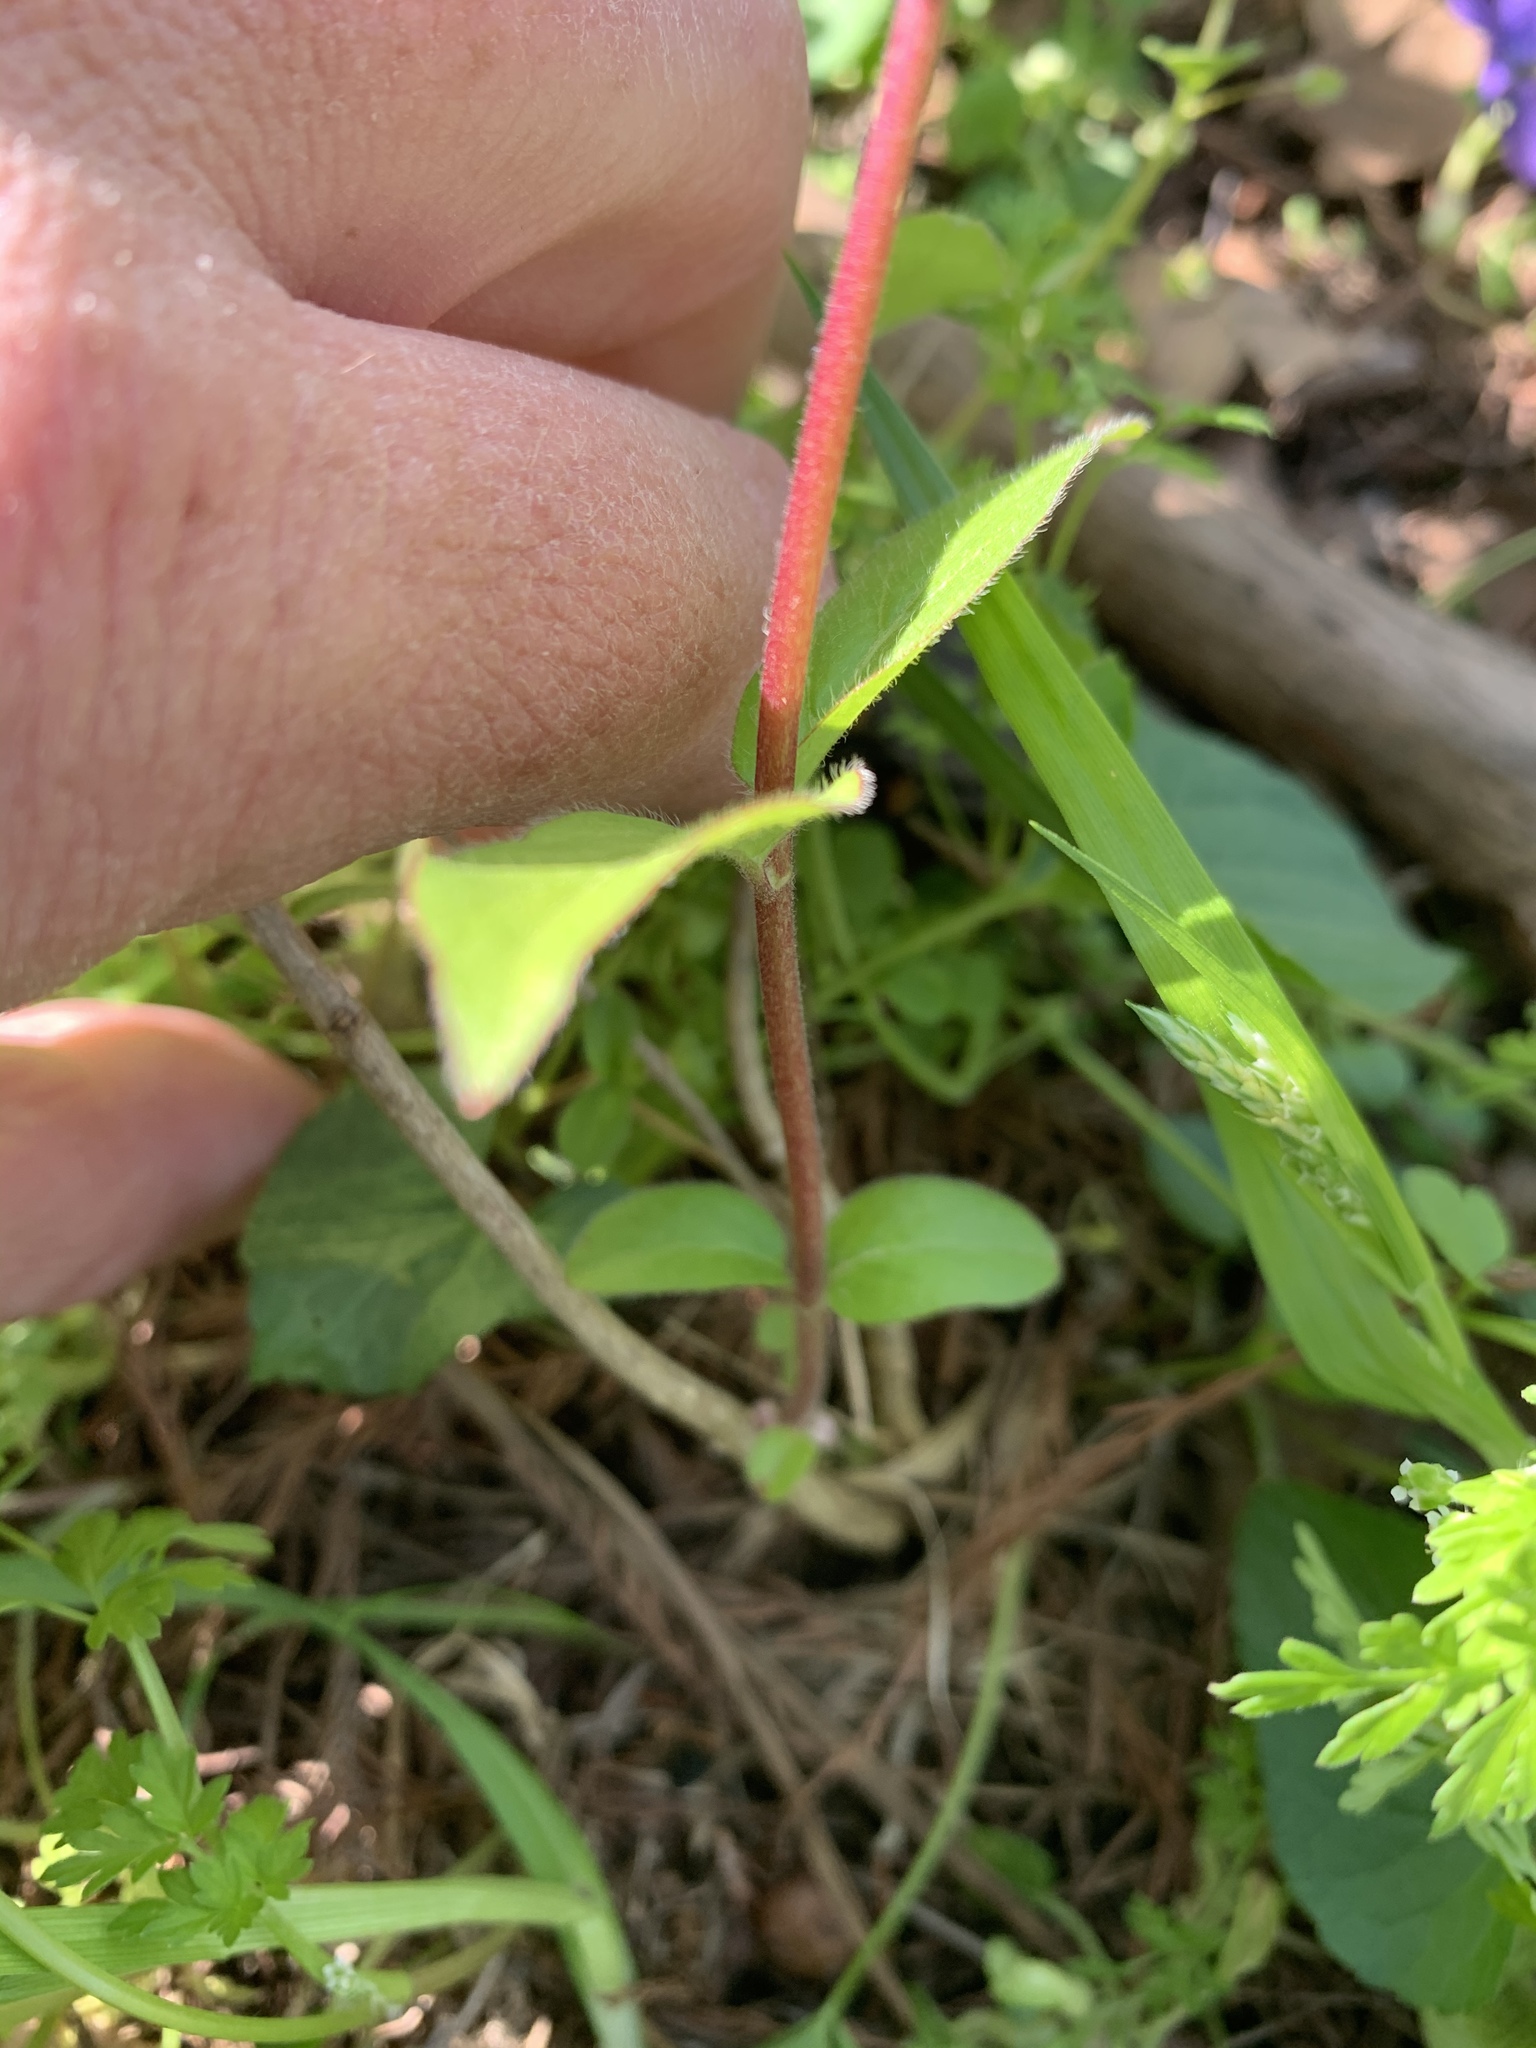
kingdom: Plantae
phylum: Tracheophyta
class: Magnoliopsida
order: Dipsacales
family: Caprifoliaceae
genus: Lonicera
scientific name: Lonicera maackii
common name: Amur honeysuckle
